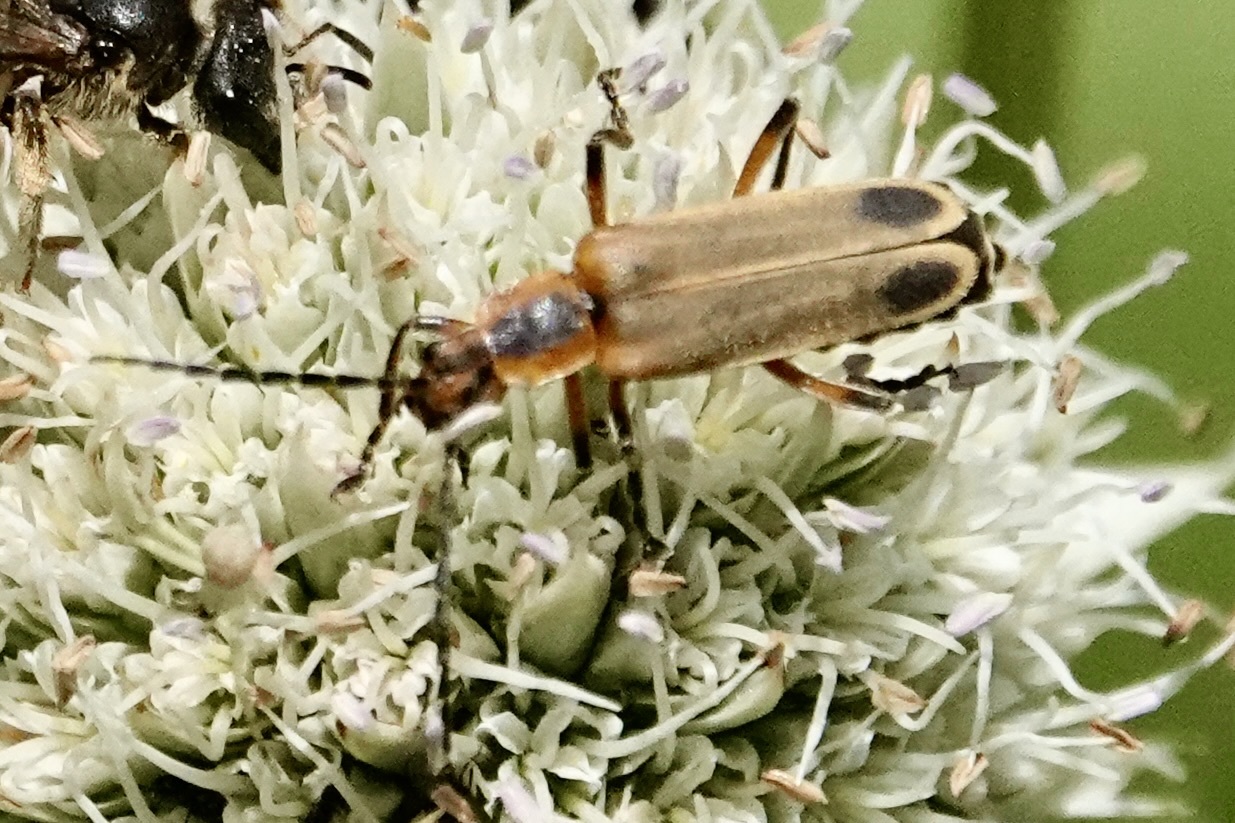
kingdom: Animalia
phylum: Arthropoda
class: Insecta
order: Coleoptera
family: Cantharidae
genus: Chauliognathus
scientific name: Chauliognathus marginatus
